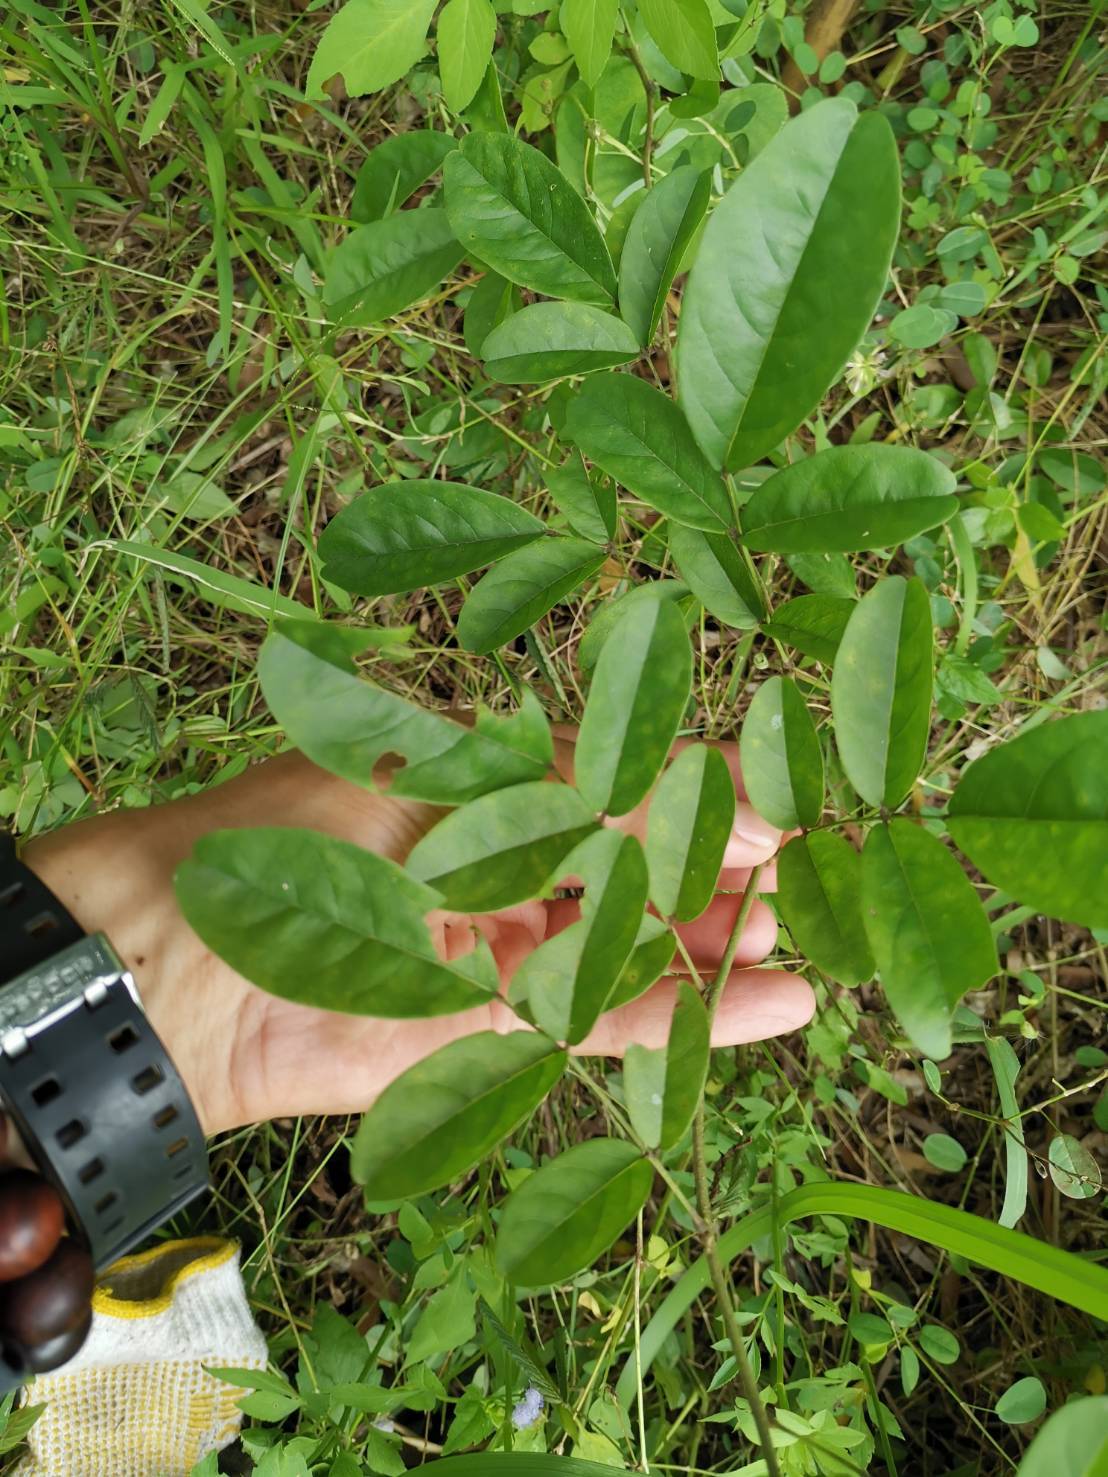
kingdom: Plantae
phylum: Tracheophyta
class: Magnoliopsida
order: Fabales
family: Fabaceae
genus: Wisteriopsis
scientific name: Wisteriopsis reticulata
